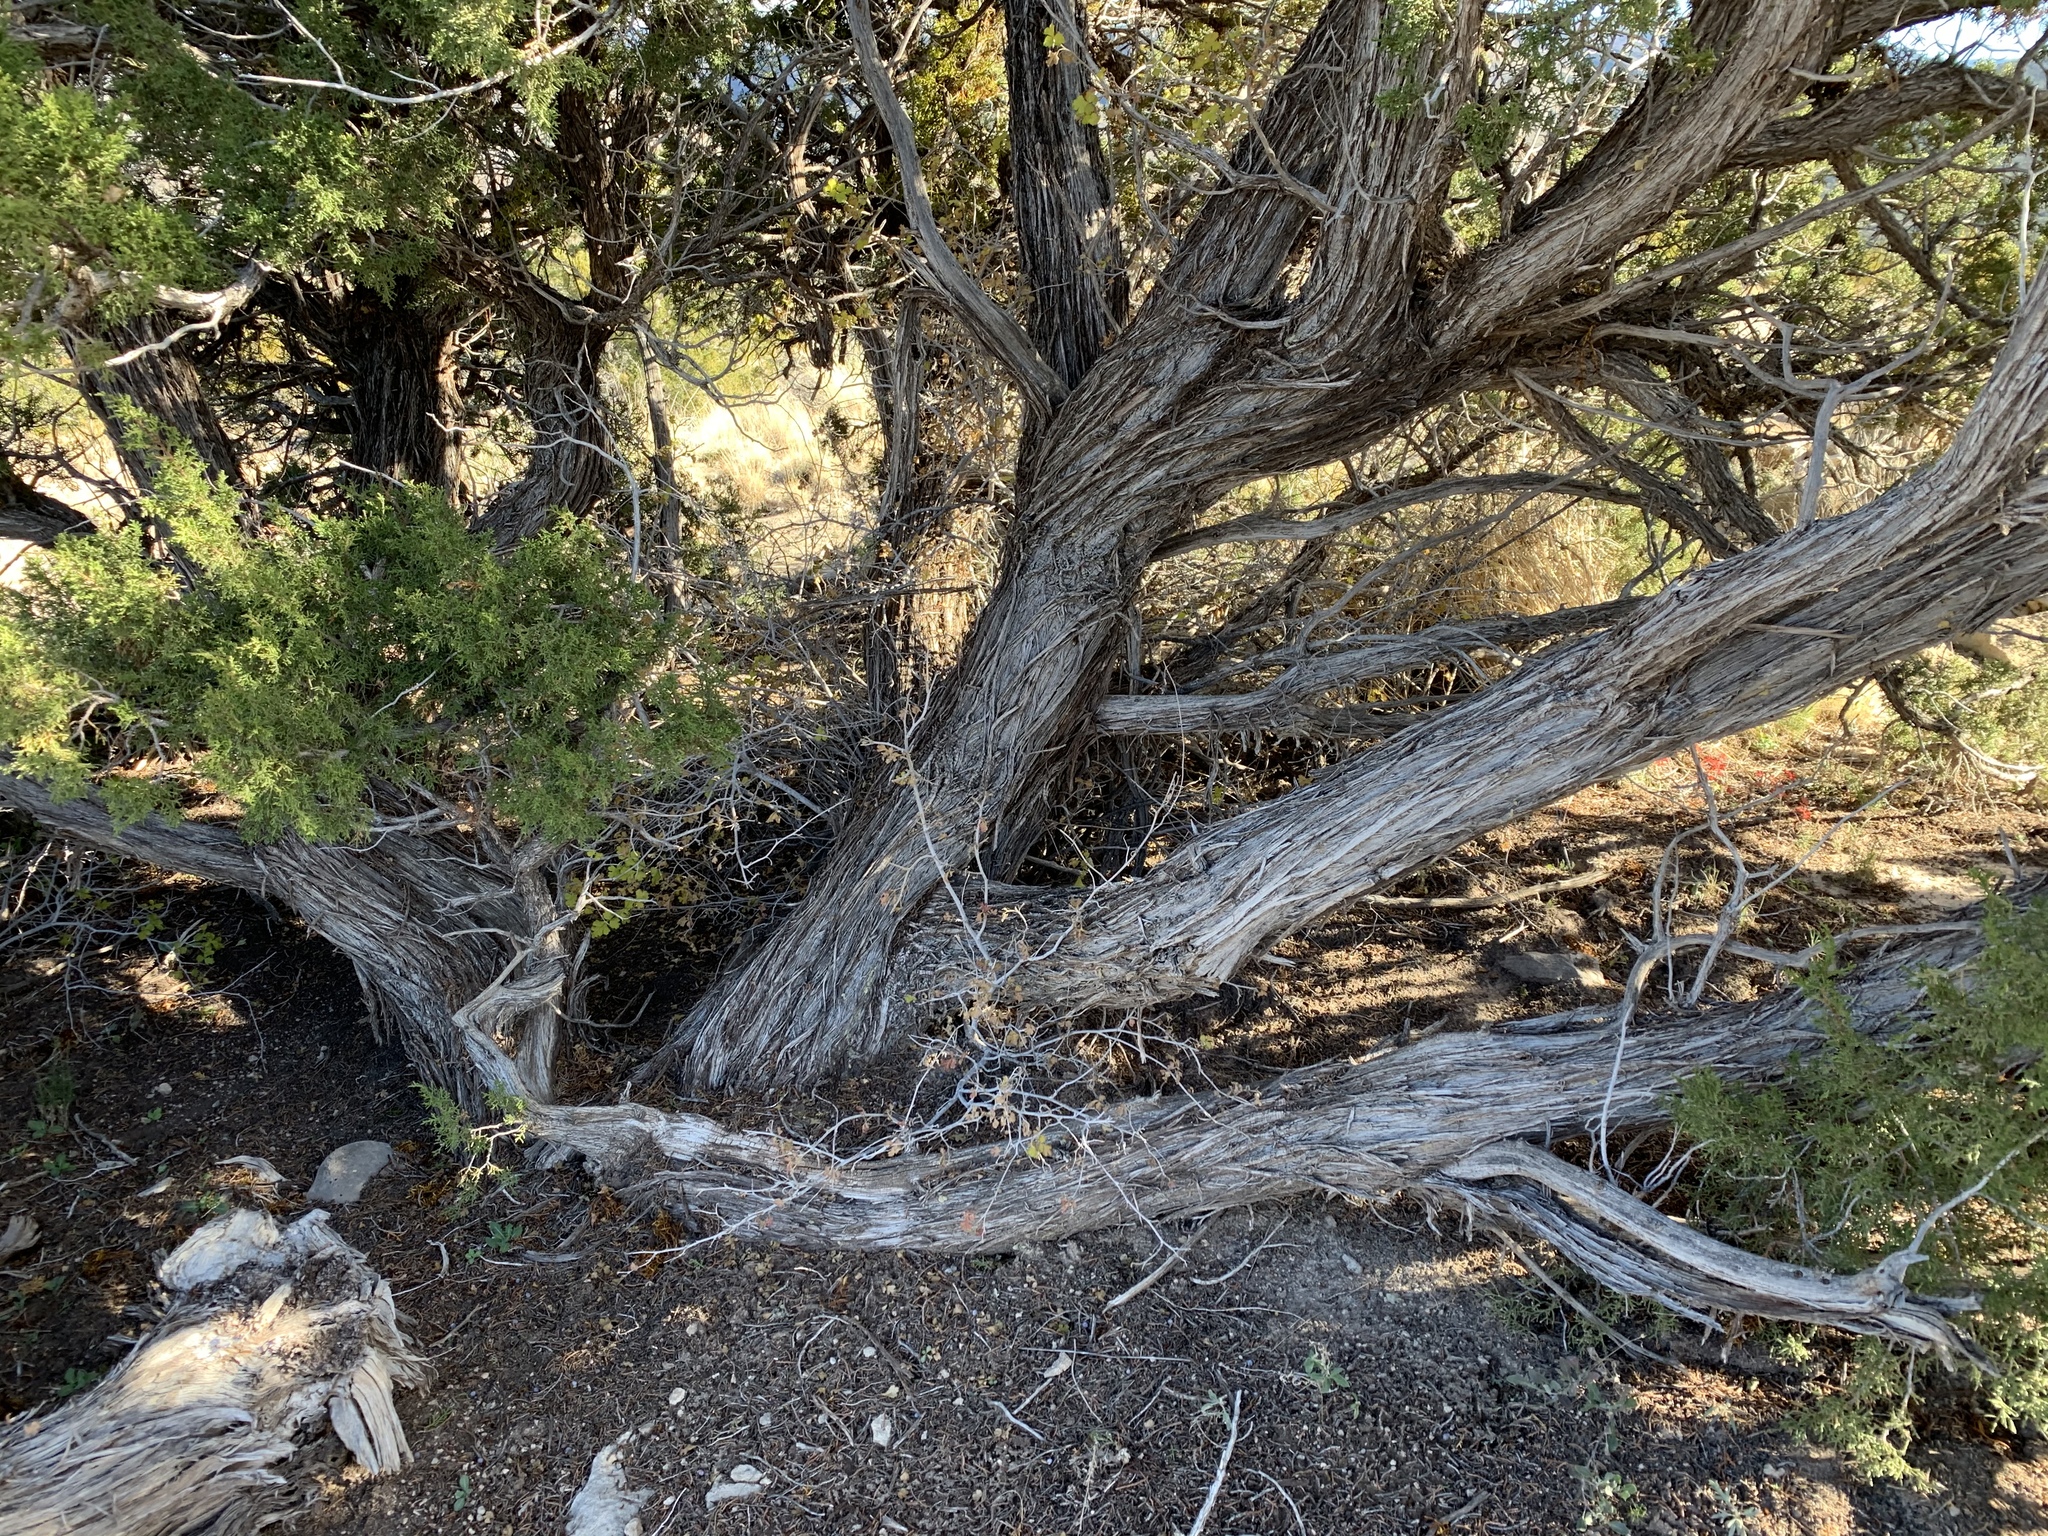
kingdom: Plantae
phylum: Tracheophyta
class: Pinopsida
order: Pinales
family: Cupressaceae
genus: Juniperus
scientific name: Juniperus monosperma
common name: One-seed juniper
